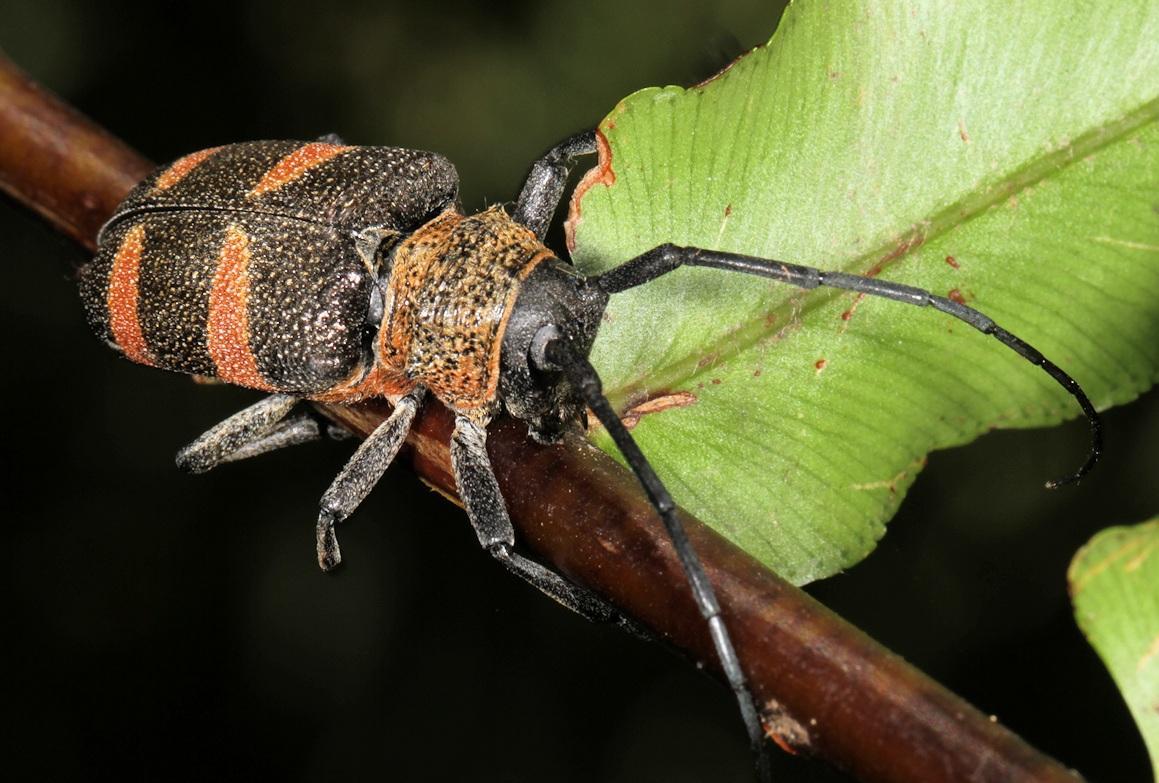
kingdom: Animalia
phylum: Arthropoda
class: Insecta
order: Coleoptera
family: Cerambycidae
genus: Pycnopsis
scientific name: Pycnopsis brachyptera
